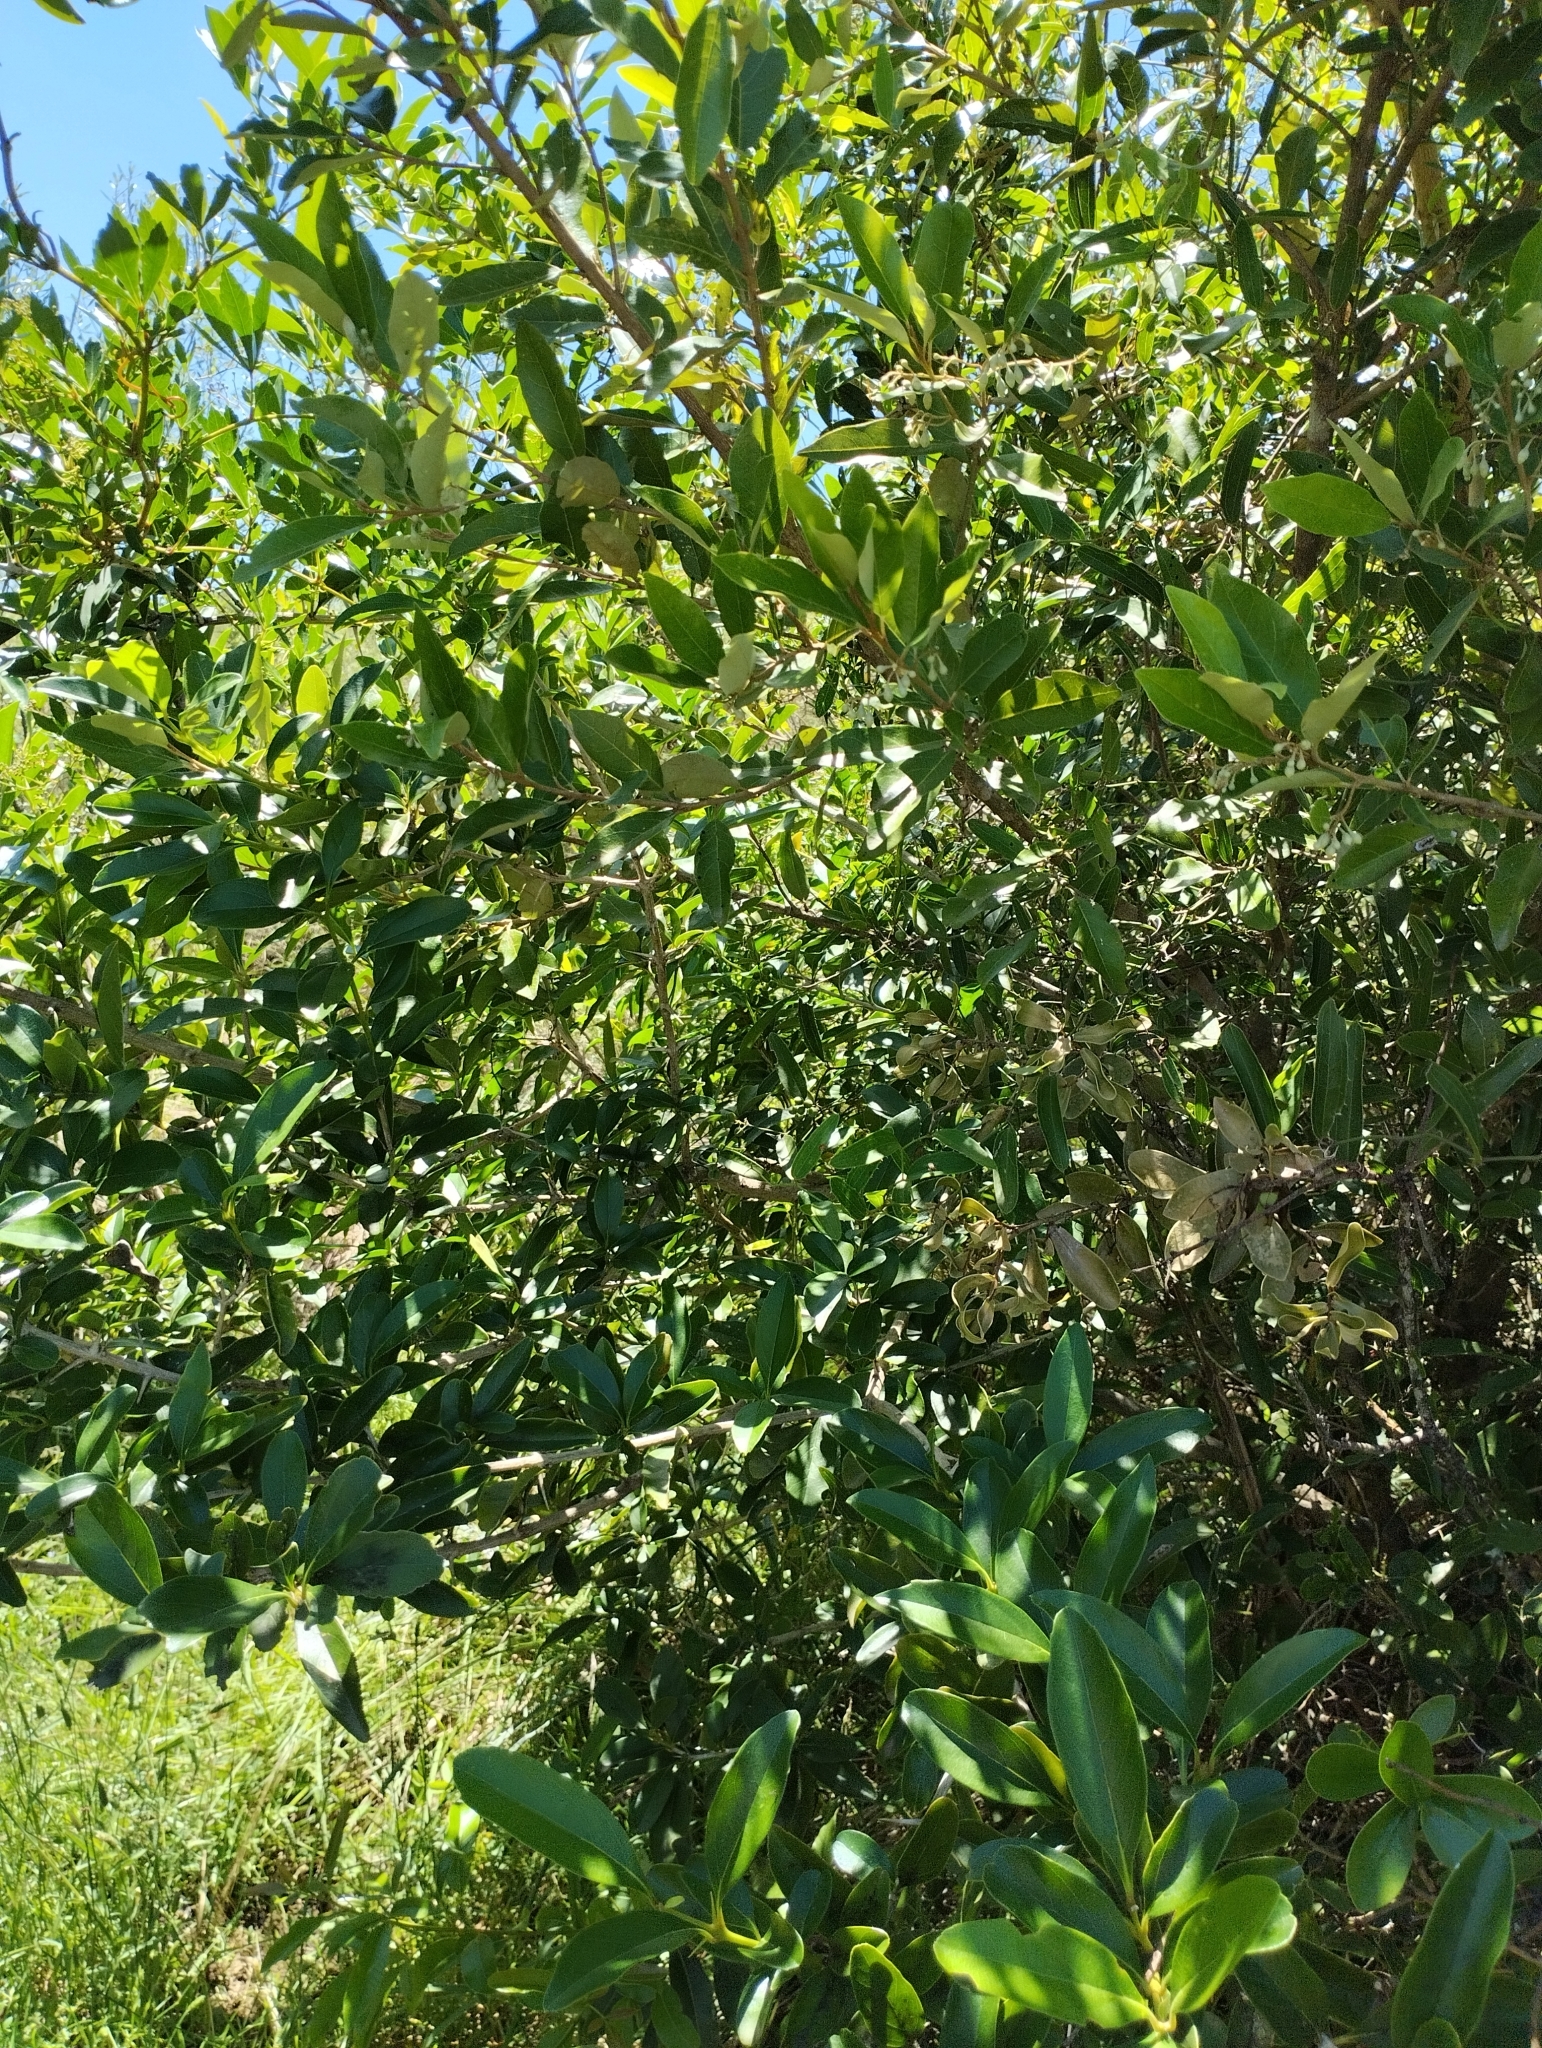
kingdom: Plantae
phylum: Tracheophyta
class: Magnoliopsida
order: Lamiales
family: Verbenaceae
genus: Citharexylum
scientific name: Citharexylum montevidense
